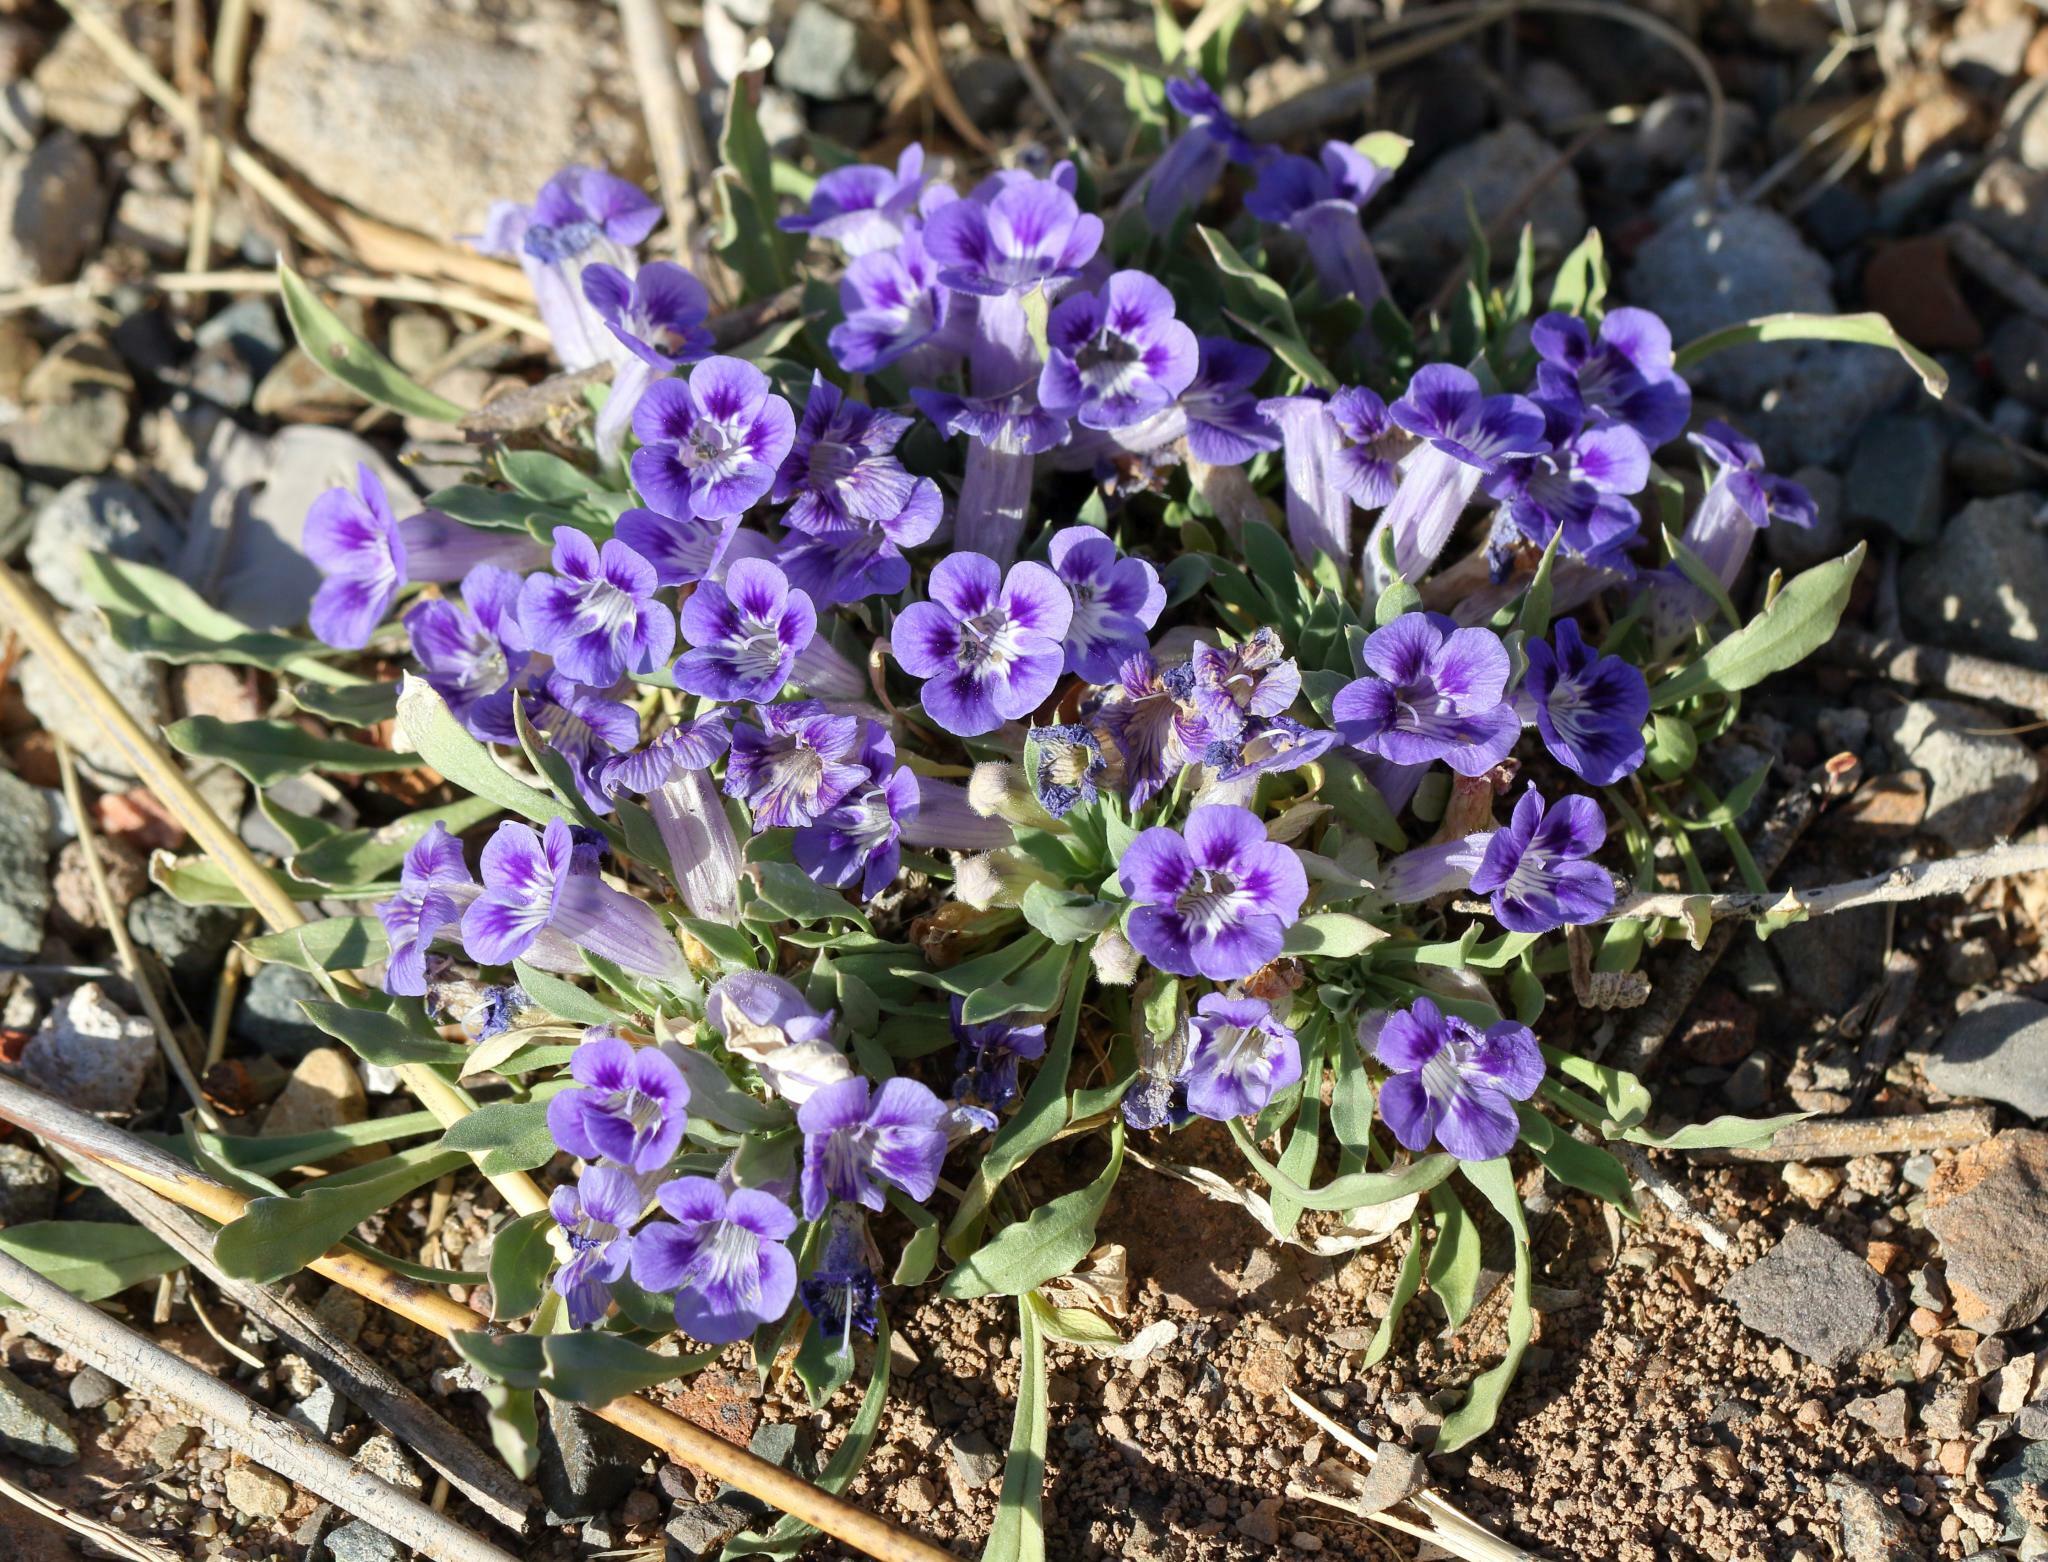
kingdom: Plantae
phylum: Tracheophyta
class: Magnoliopsida
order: Lamiales
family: Scrophulariaceae
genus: Aptosimum
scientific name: Aptosimum indivisum
